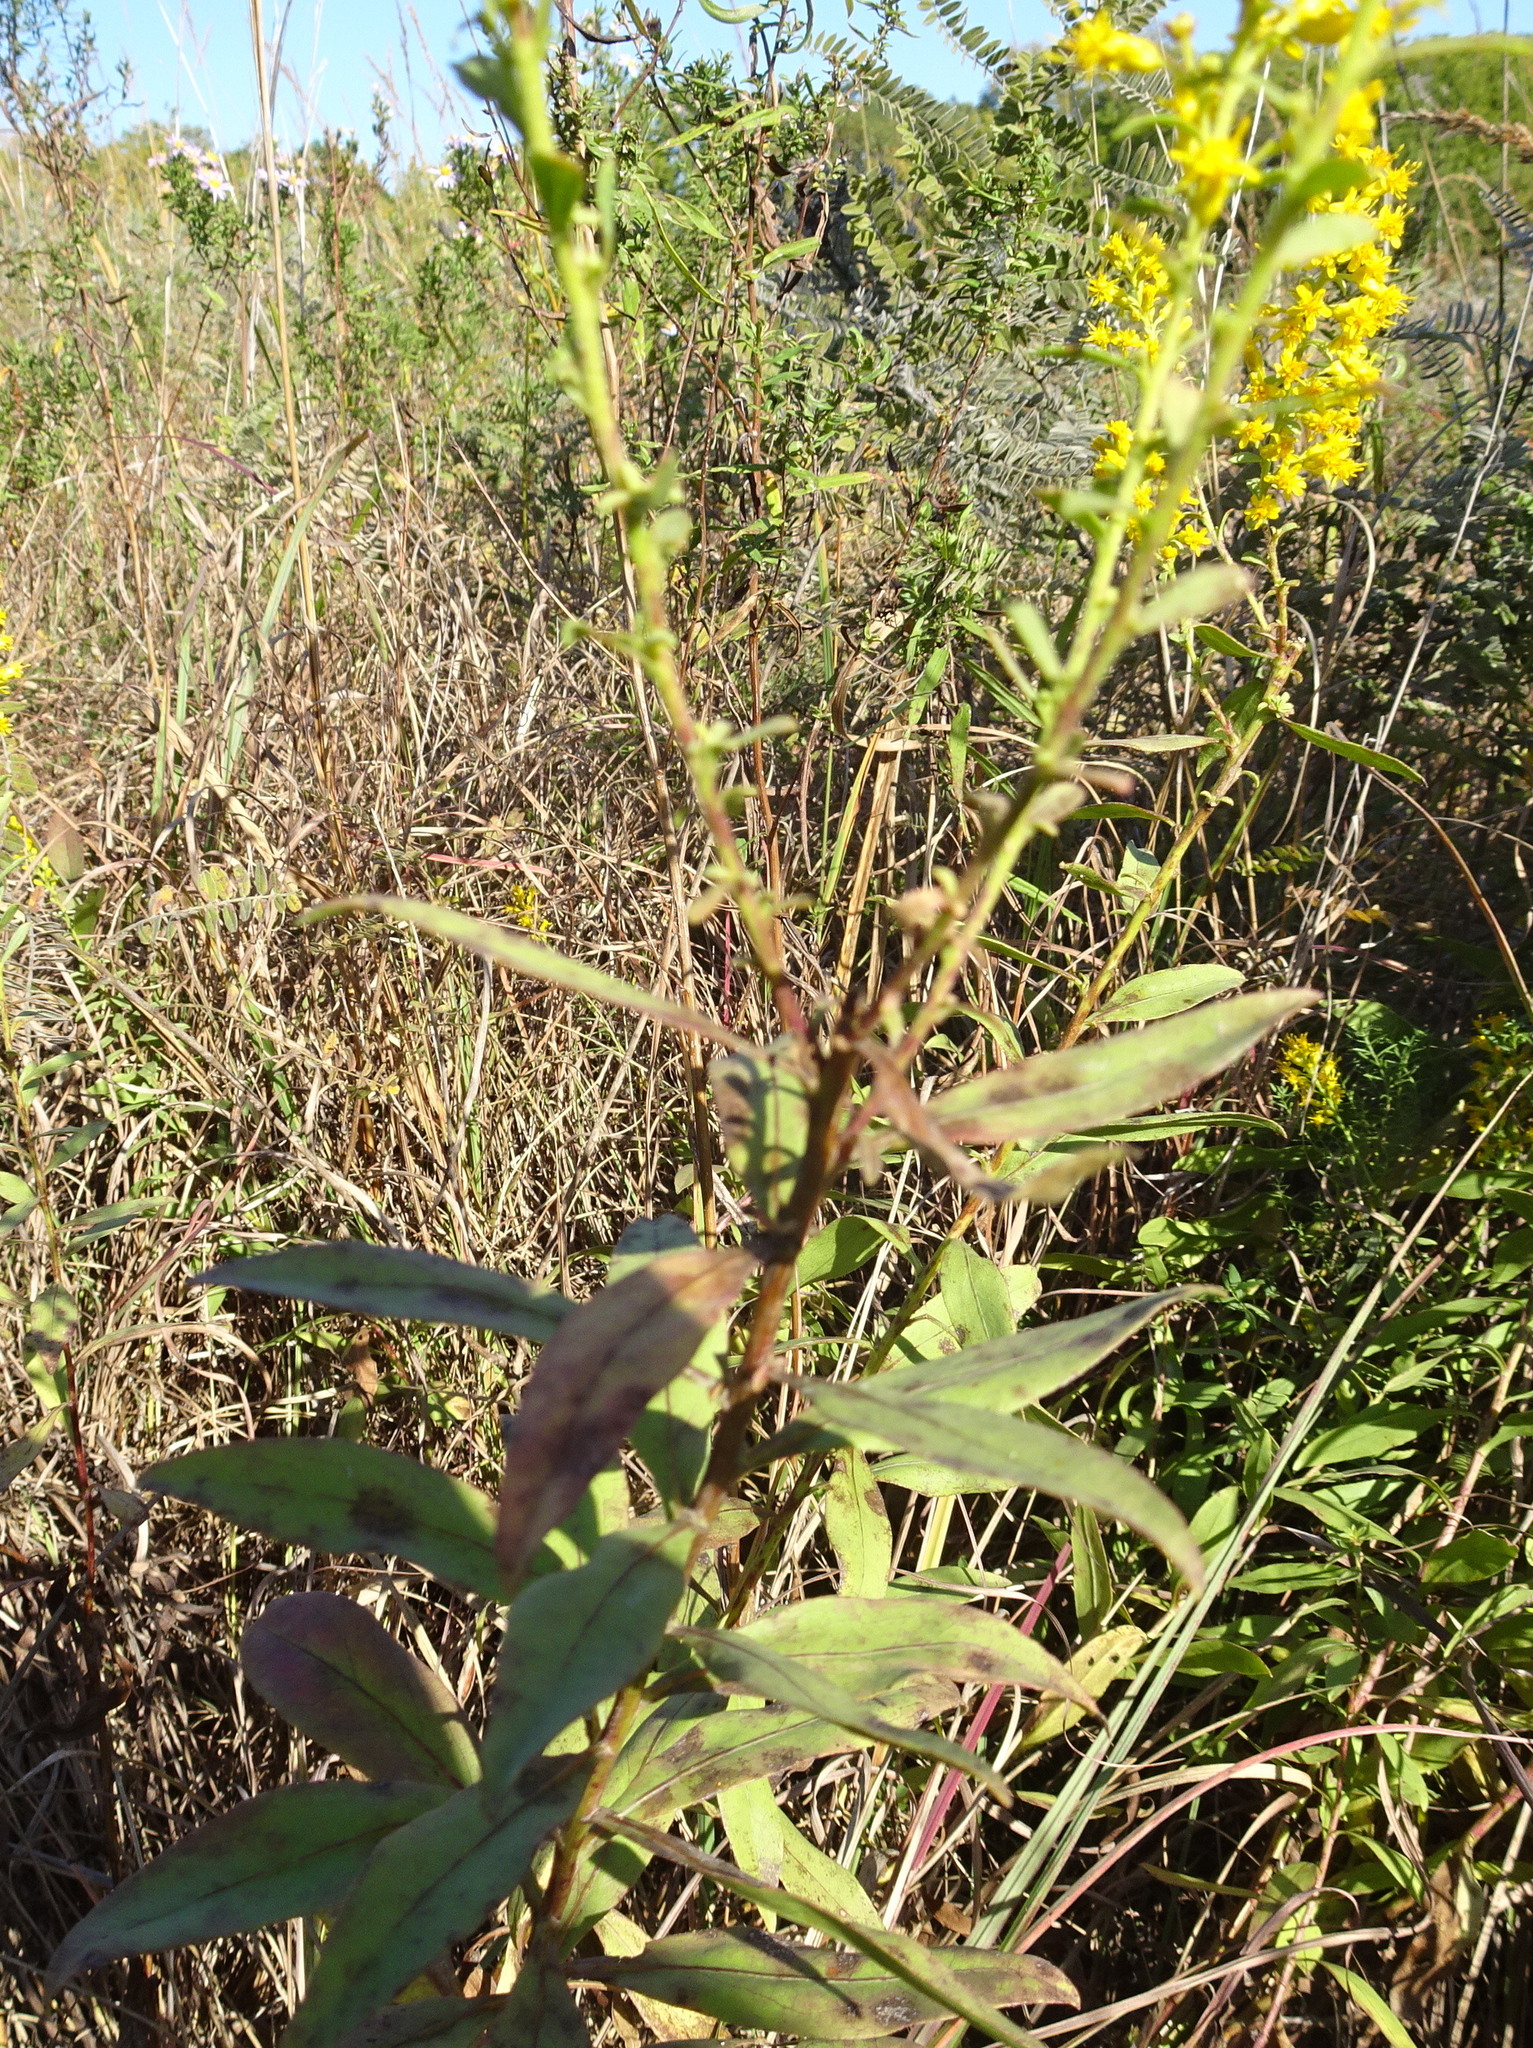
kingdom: Plantae
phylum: Tracheophyta
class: Magnoliopsida
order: Asterales
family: Asteraceae
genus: Solidago
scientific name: Solidago rigidiuscula
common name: Stiff-leaved showy goldenrod
